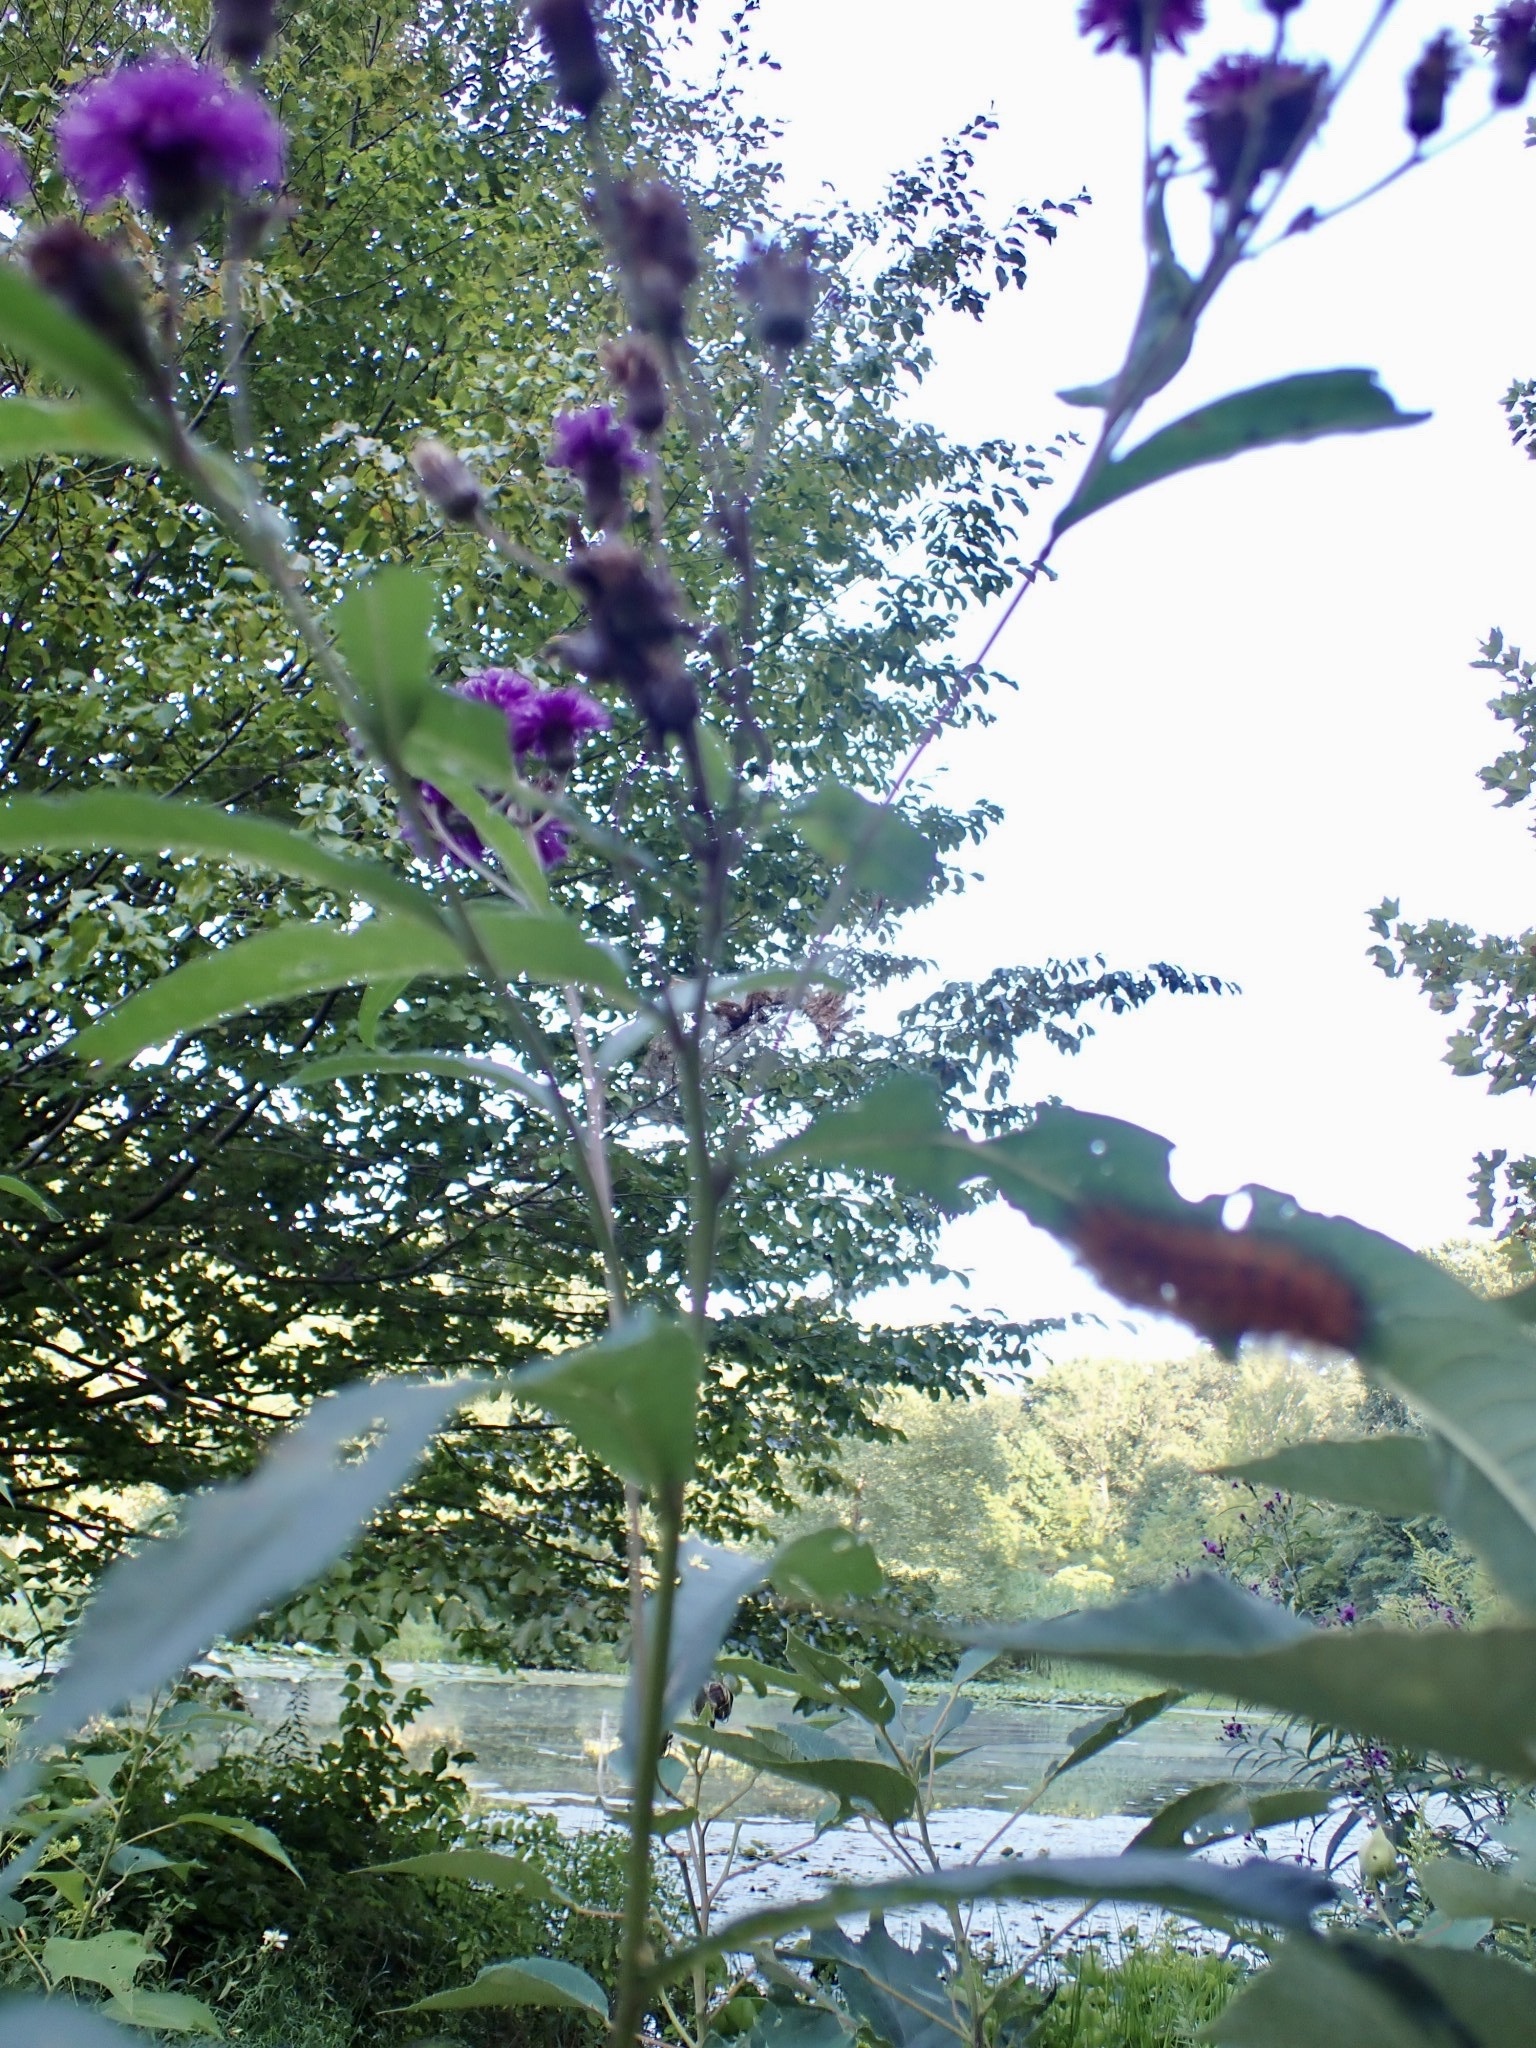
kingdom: Animalia
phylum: Arthropoda
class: Insecta
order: Lepidoptera
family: Erebidae
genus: Spilosoma
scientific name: Spilosoma virginica
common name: Virginia tiger moth
